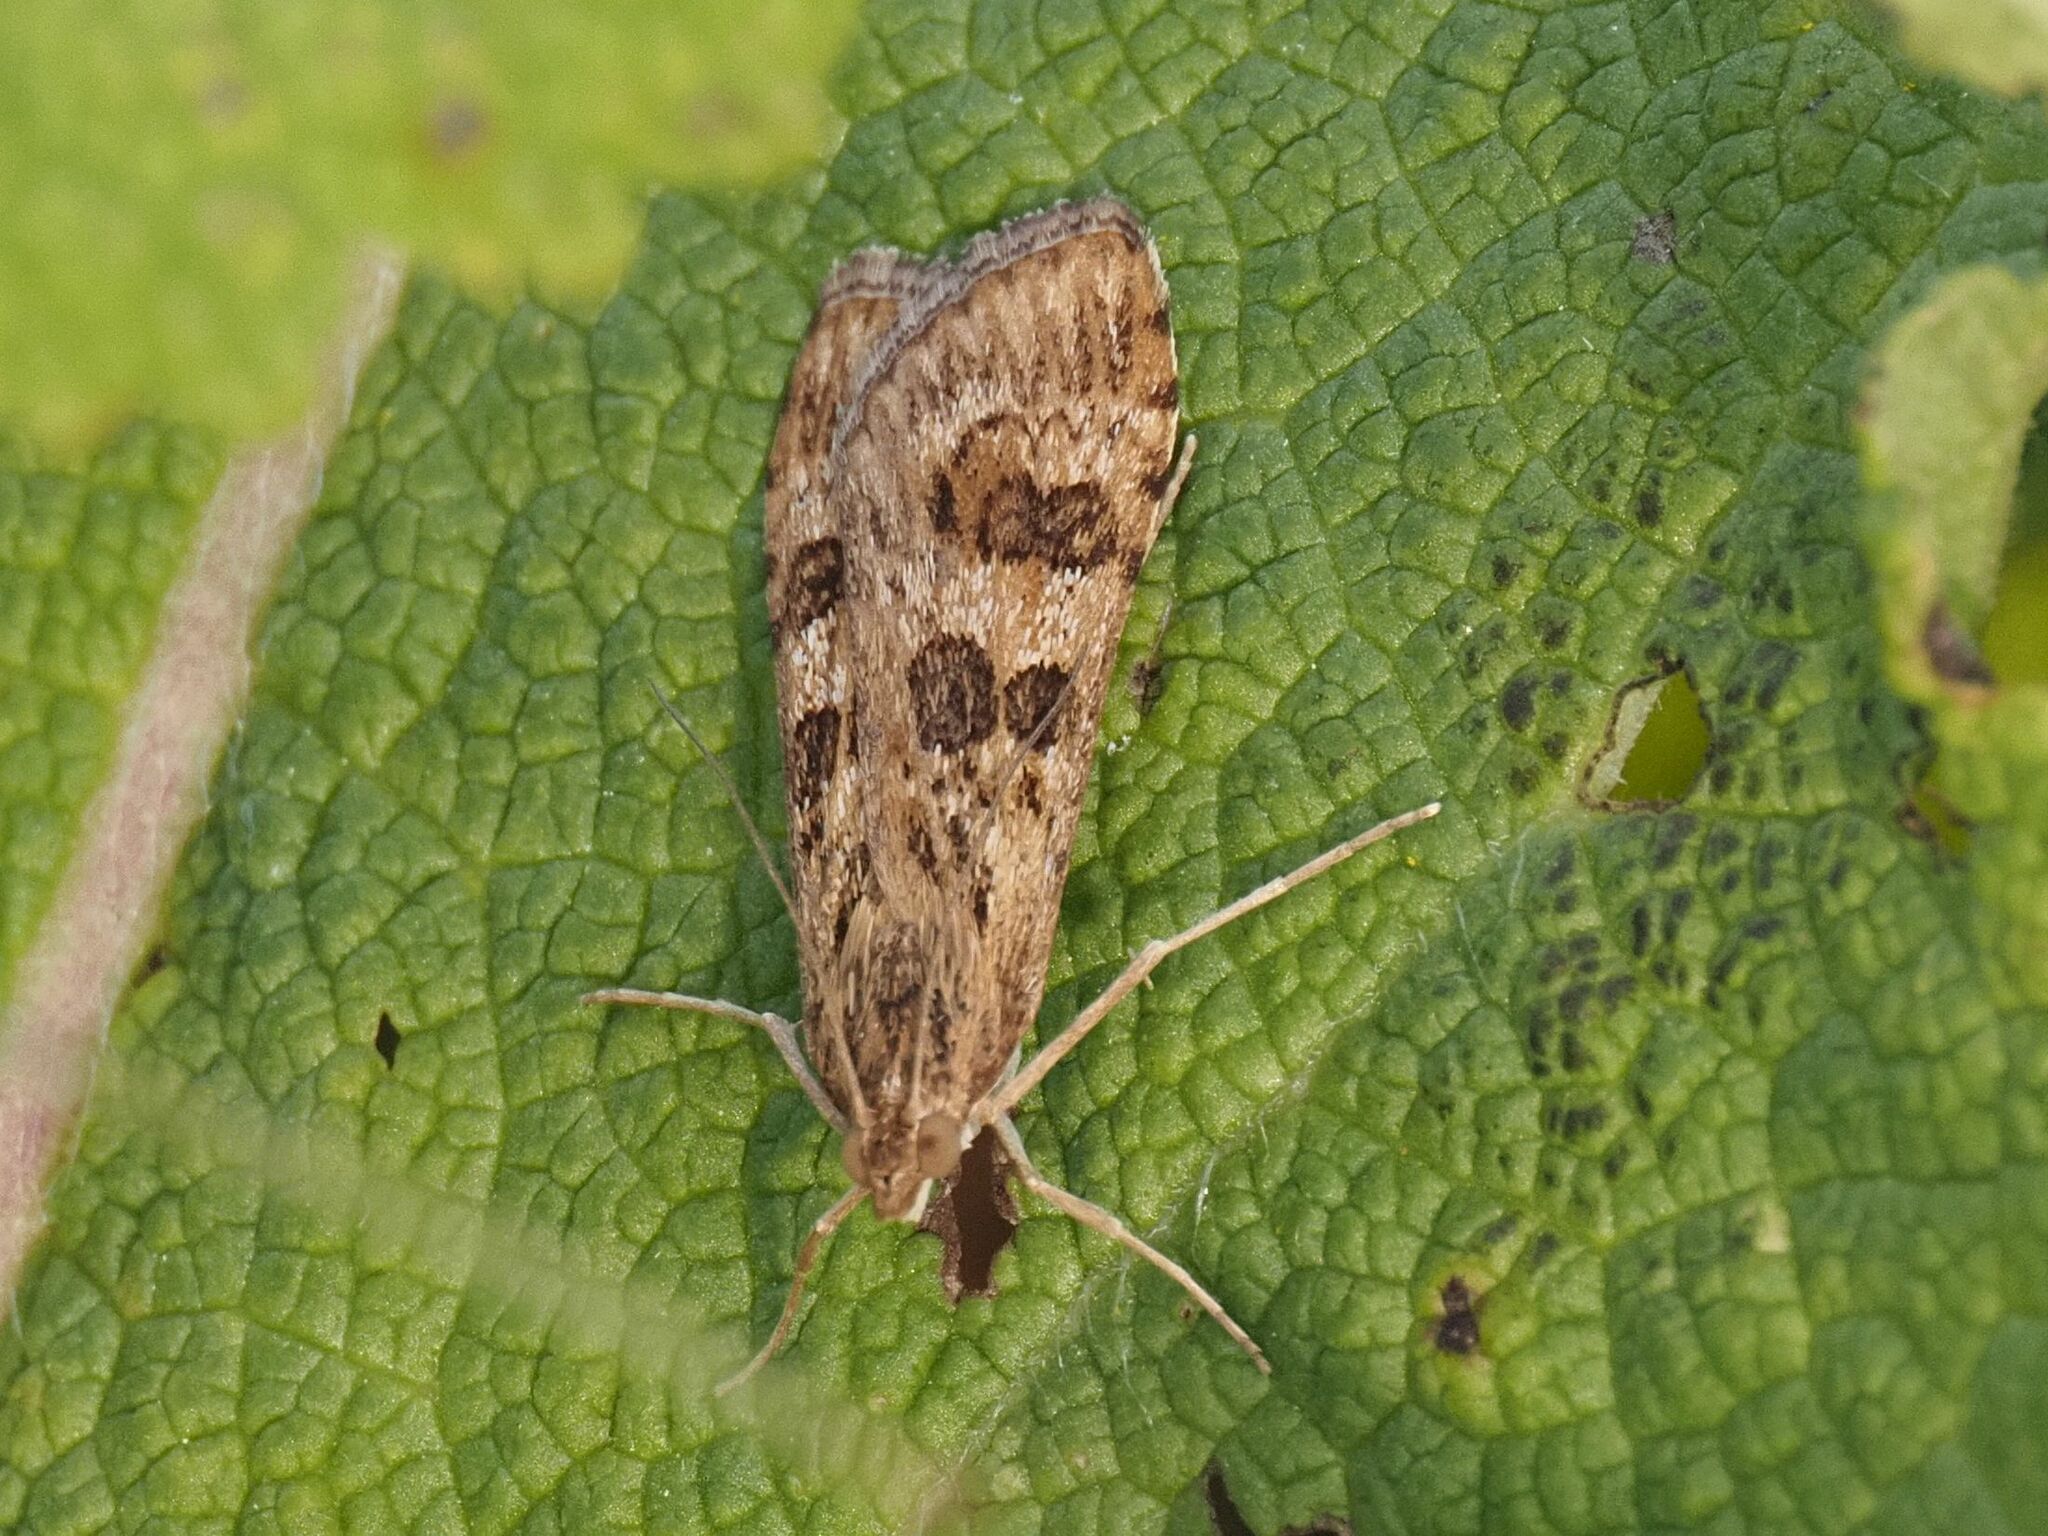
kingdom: Animalia
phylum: Arthropoda
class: Insecta
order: Lepidoptera
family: Crambidae
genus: Nomophila
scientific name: Nomophila noctuella
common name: Rush veneer
